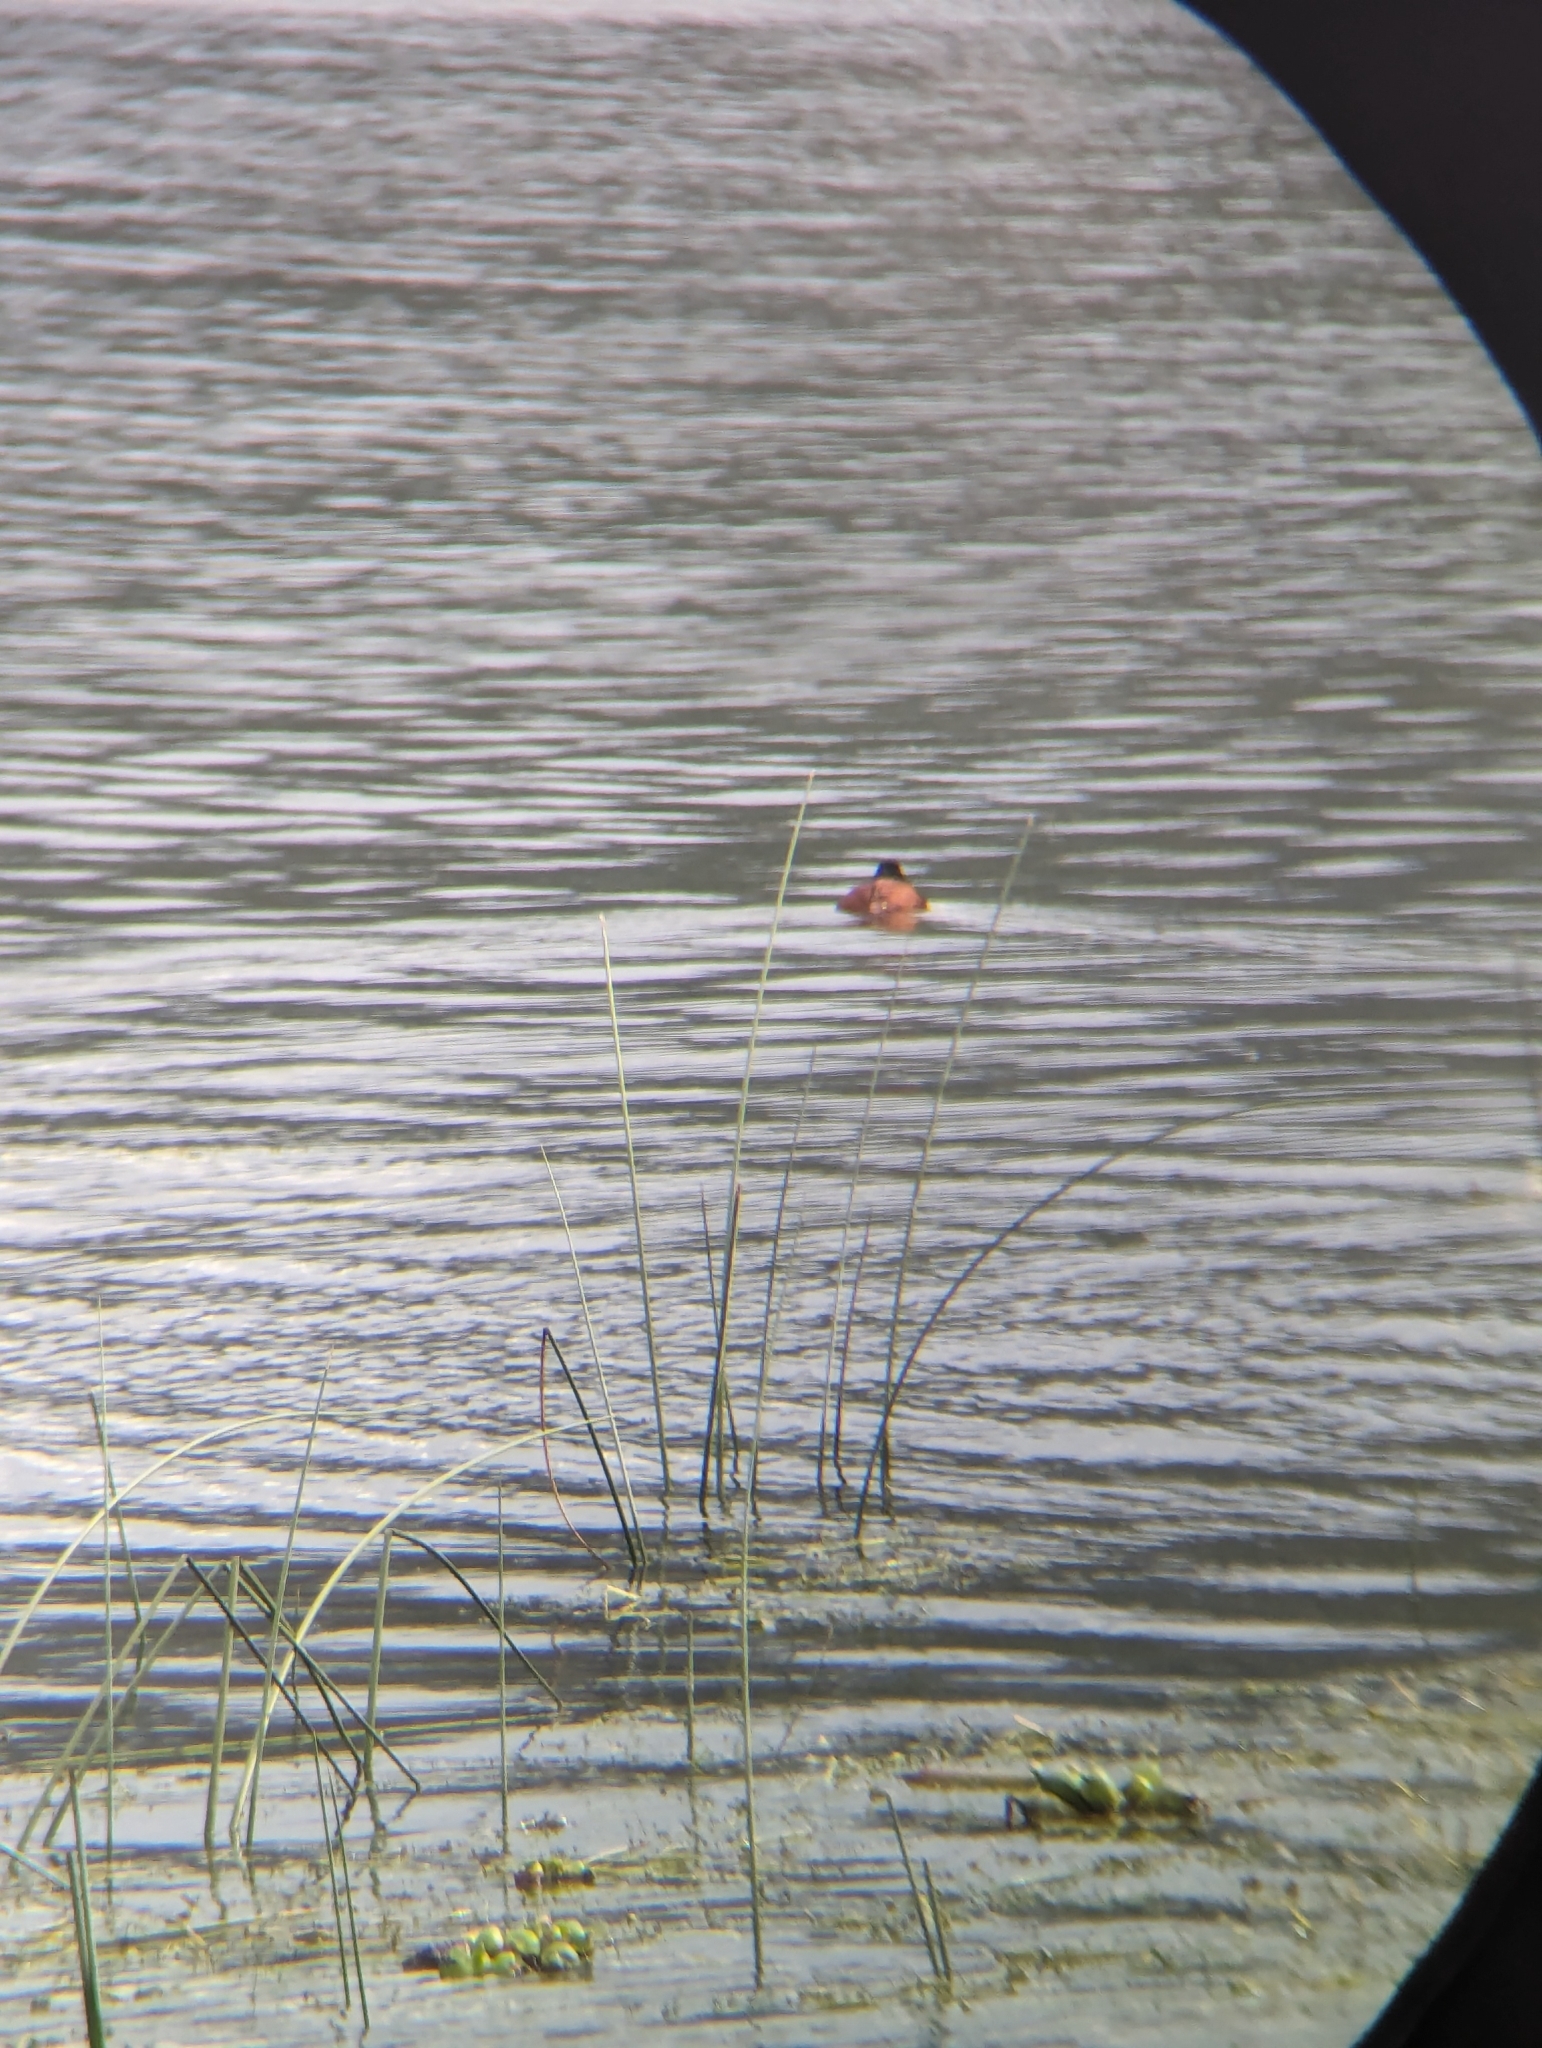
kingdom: Animalia
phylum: Chordata
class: Aves
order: Anseriformes
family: Anatidae
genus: Oxyura
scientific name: Oxyura ferruginea
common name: Andean duck
